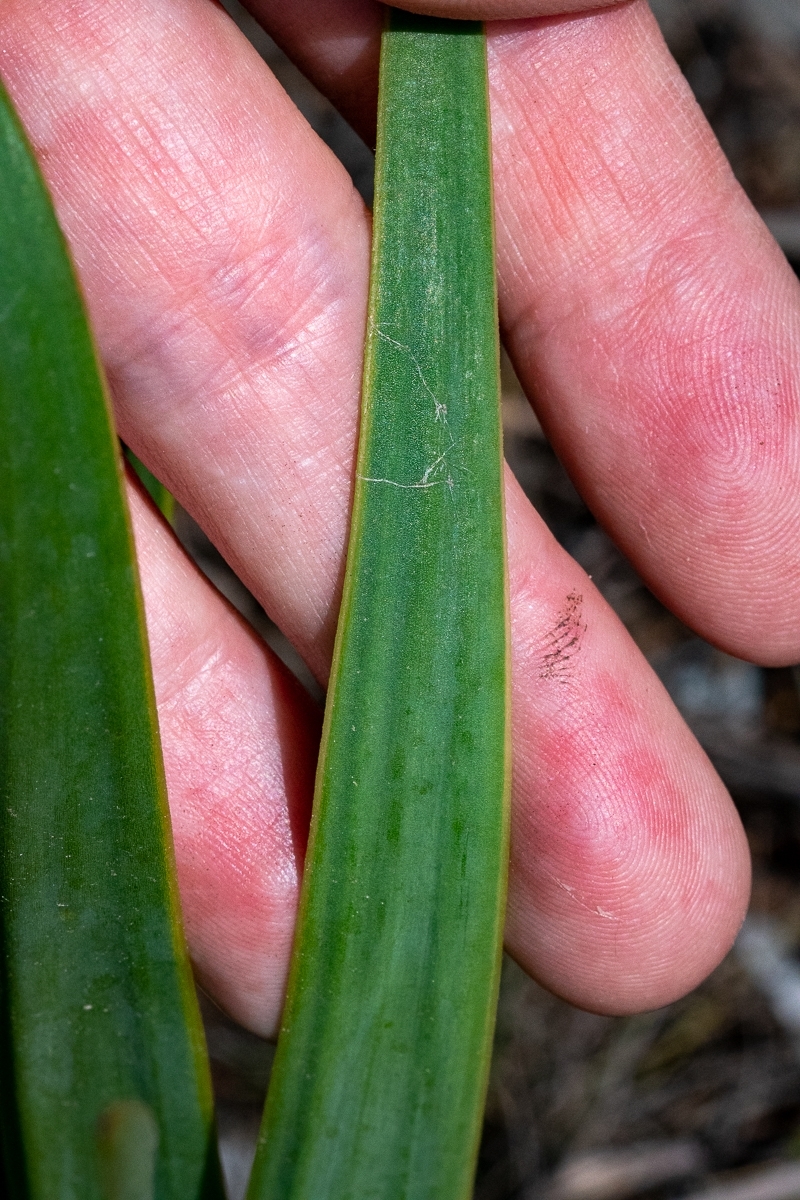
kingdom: Plantae
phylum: Tracheophyta
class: Magnoliopsida
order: Asterales
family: Asteraceae
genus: Corymbium
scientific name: Corymbium glabrum
